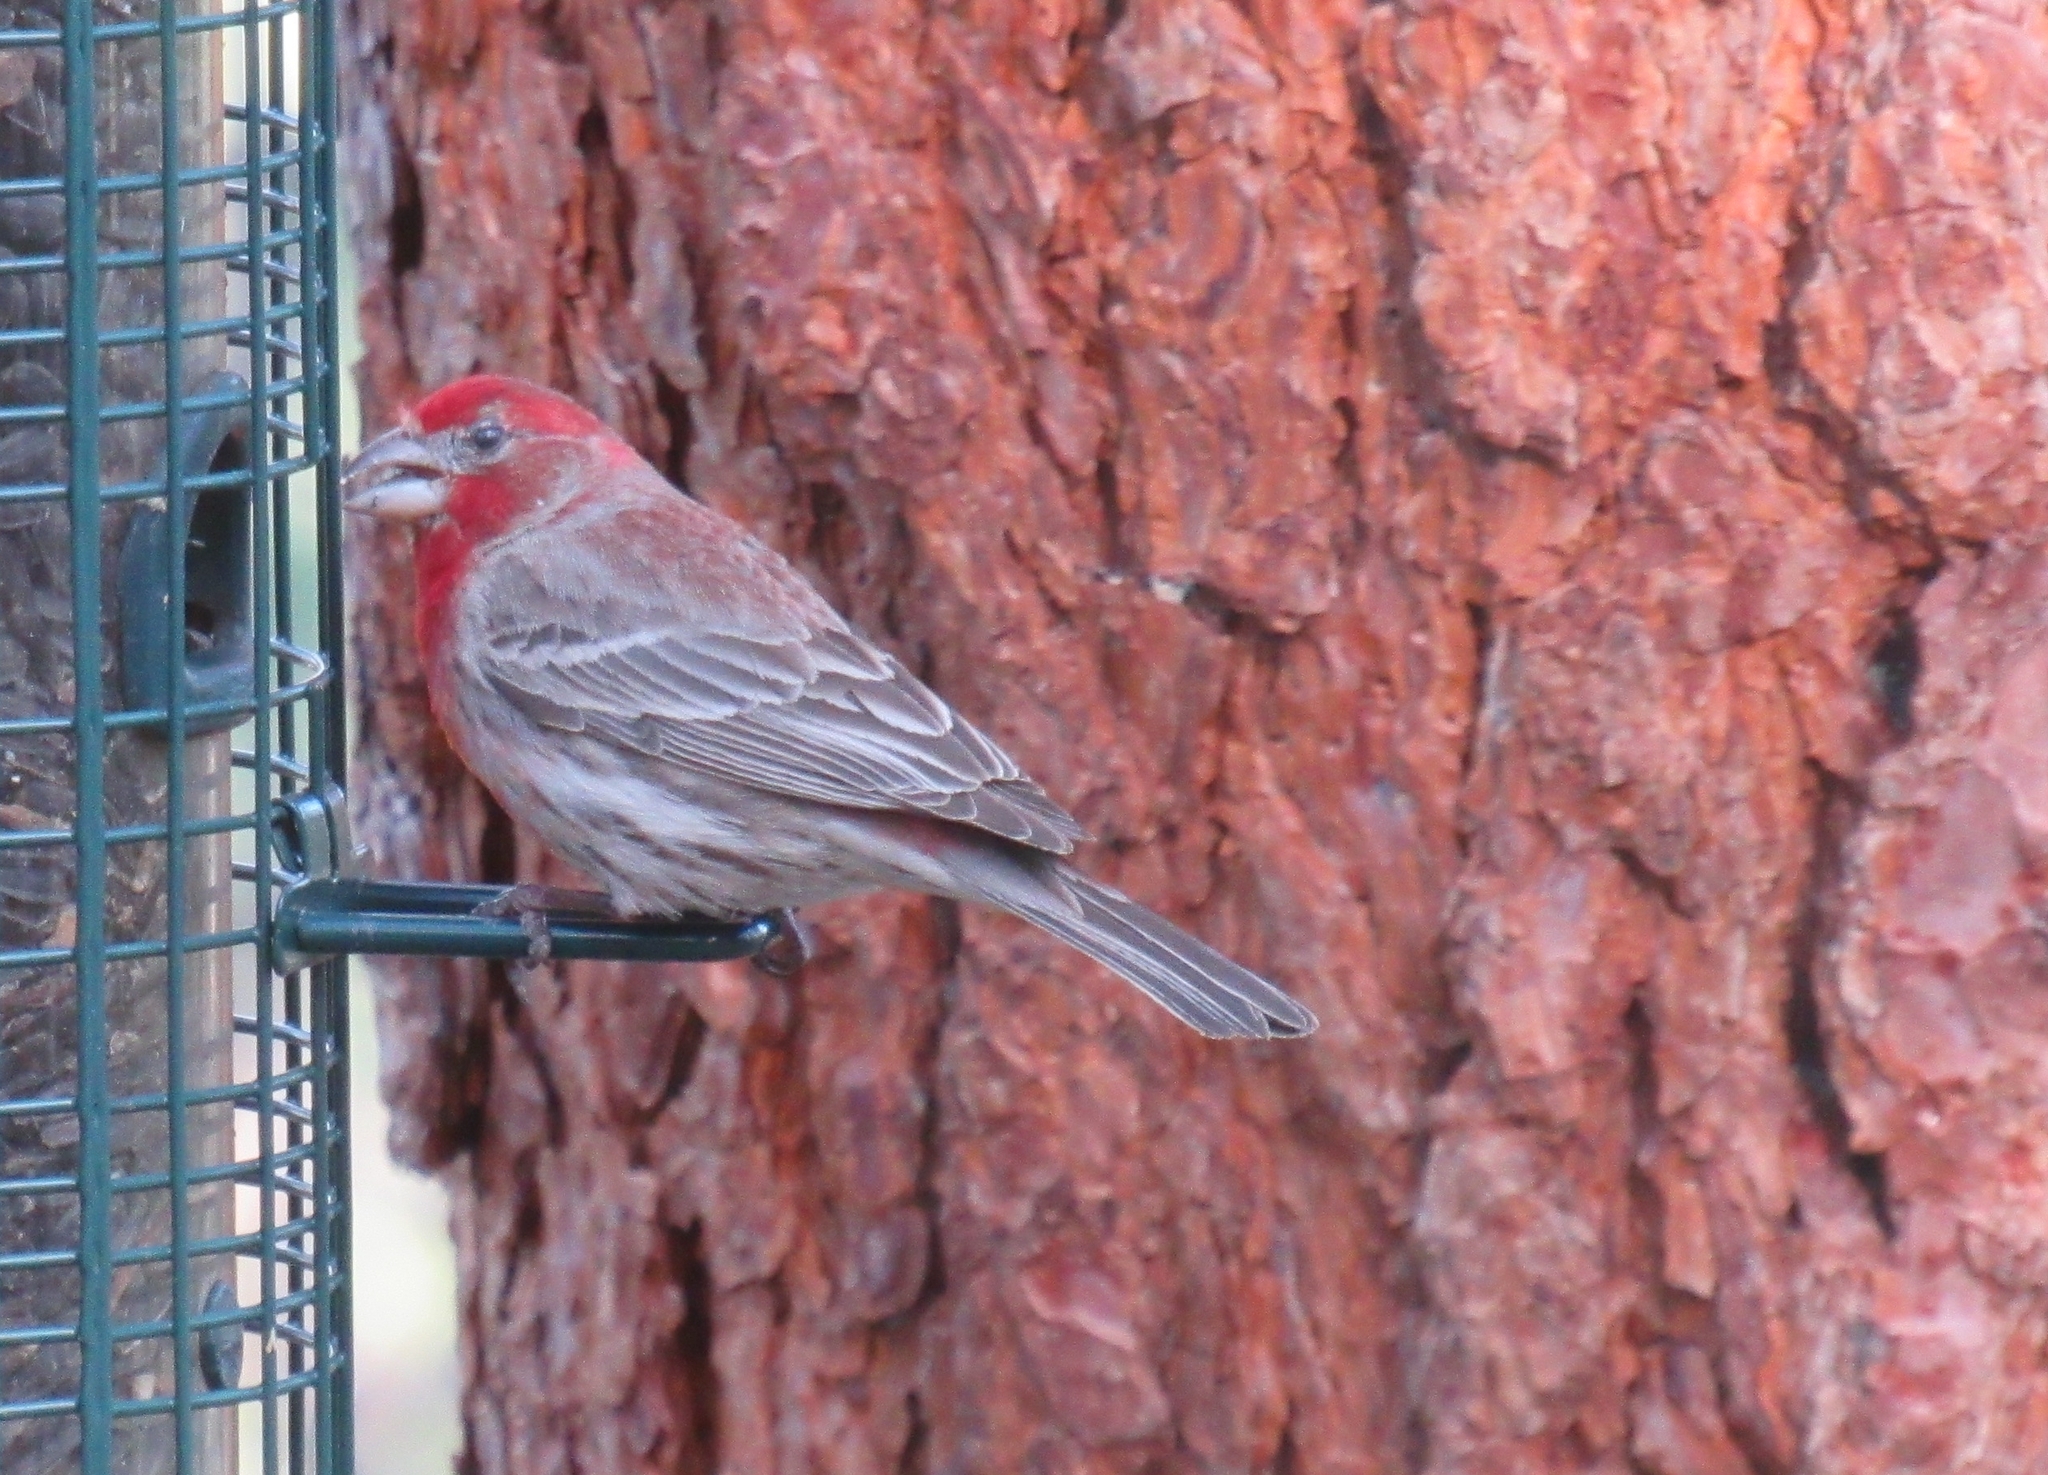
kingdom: Animalia
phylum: Chordata
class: Aves
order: Passeriformes
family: Fringillidae
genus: Haemorhous
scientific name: Haemorhous mexicanus
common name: House finch
